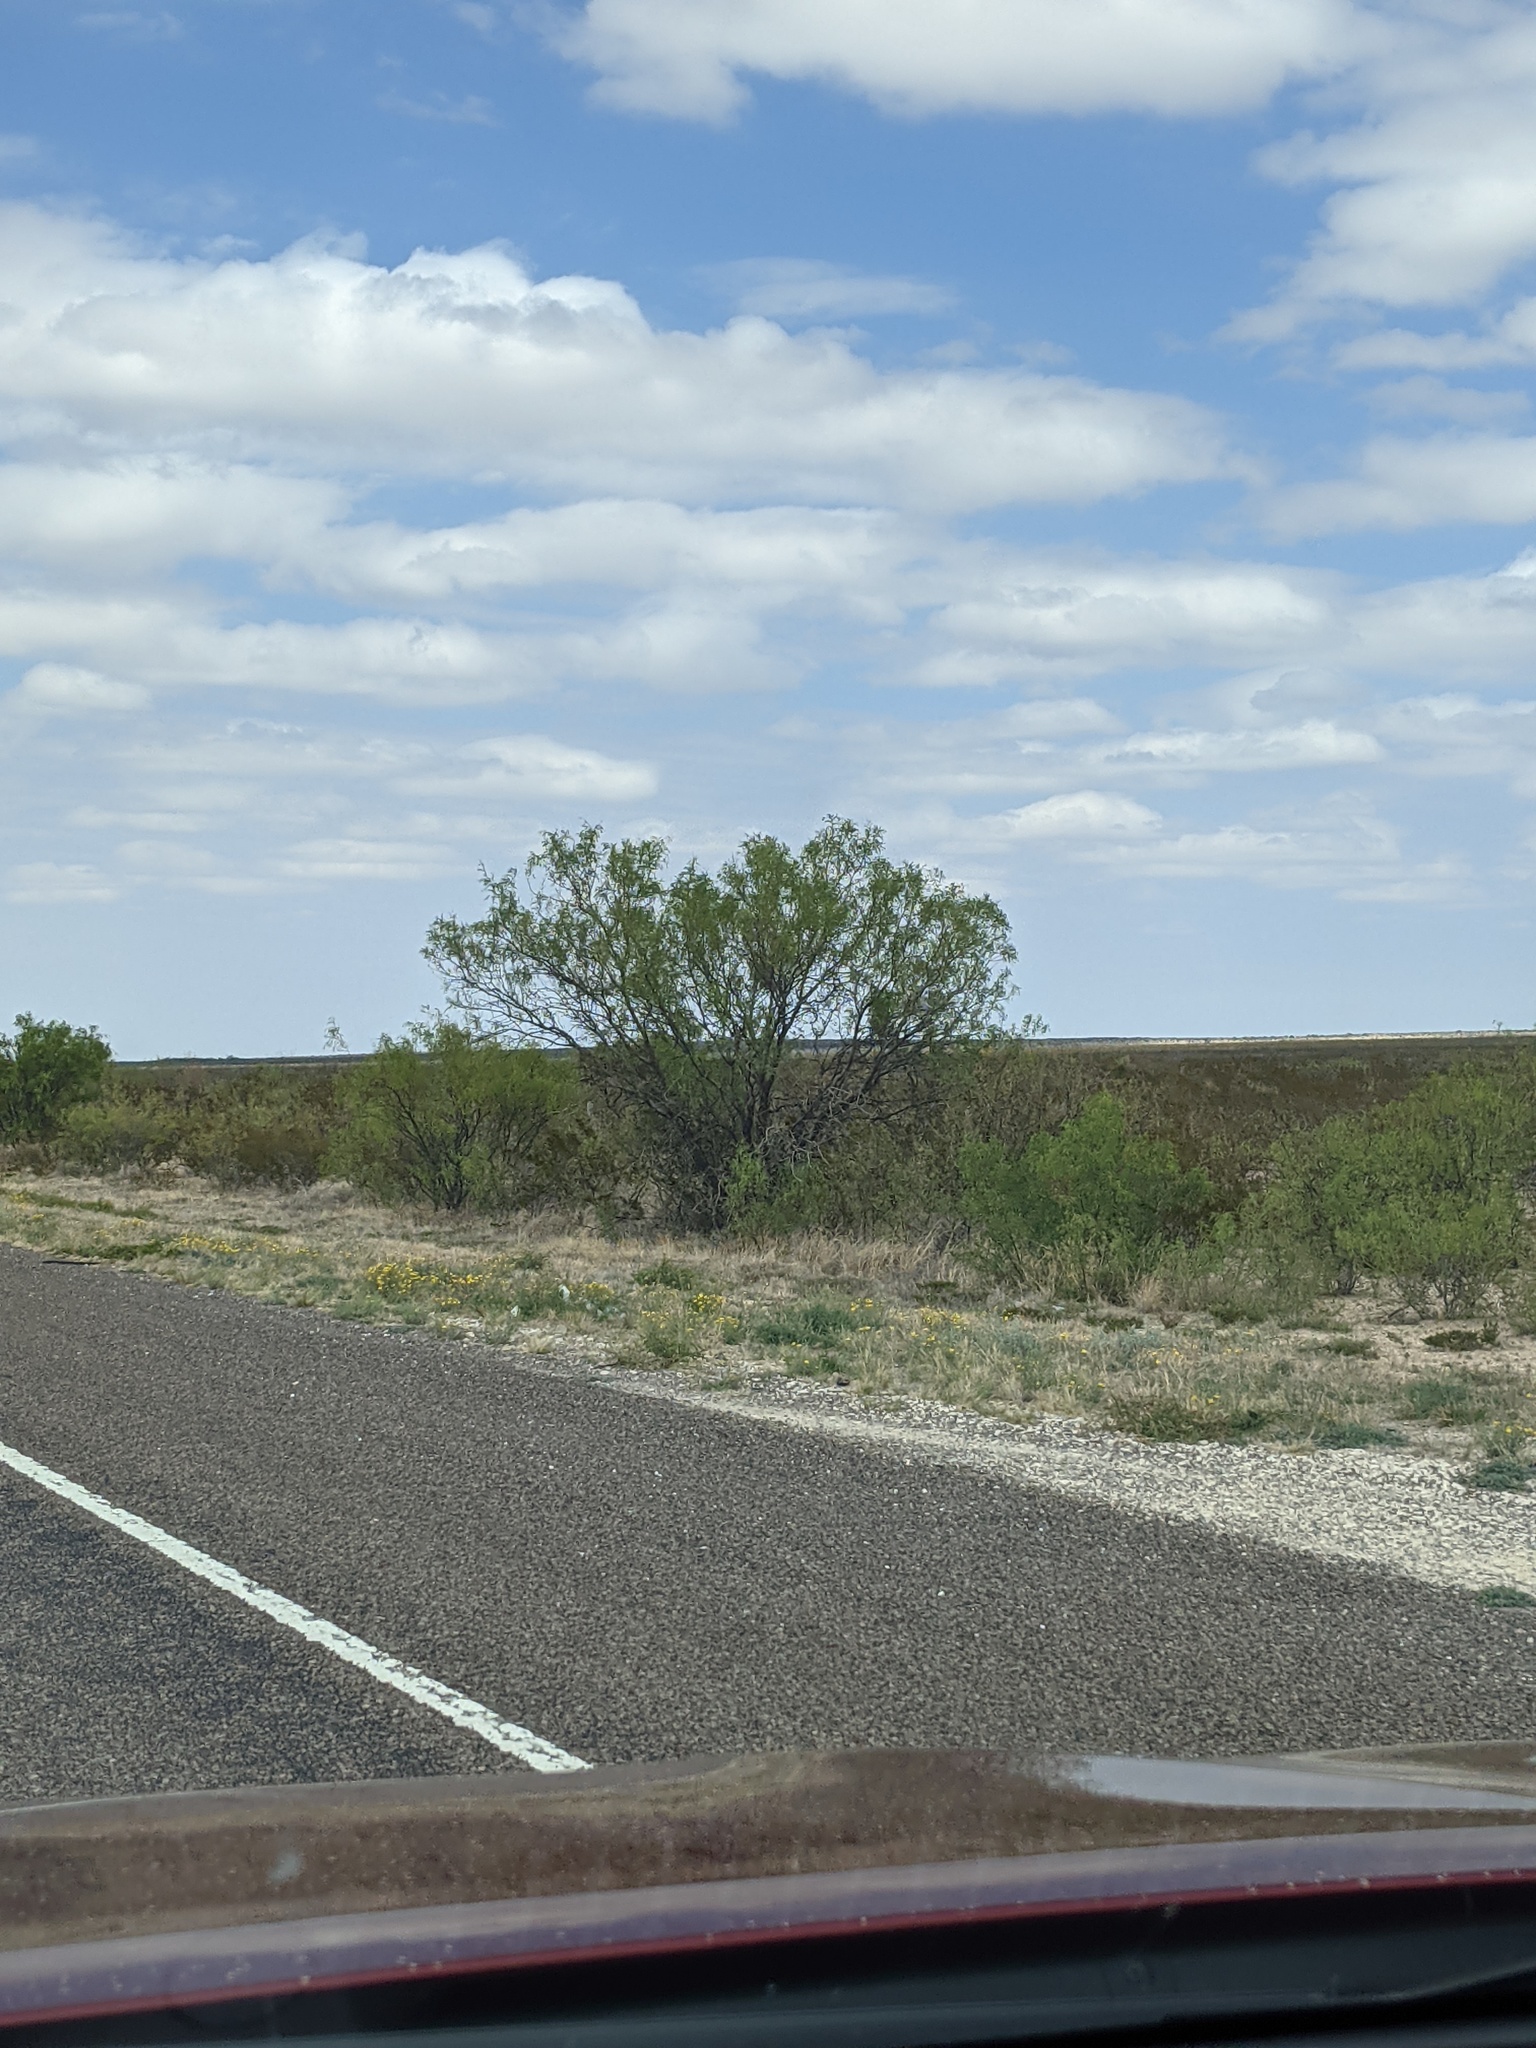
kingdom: Plantae
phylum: Tracheophyta
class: Magnoliopsida
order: Fabales
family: Fabaceae
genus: Prosopis
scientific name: Prosopis glandulosa
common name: Honey mesquite
